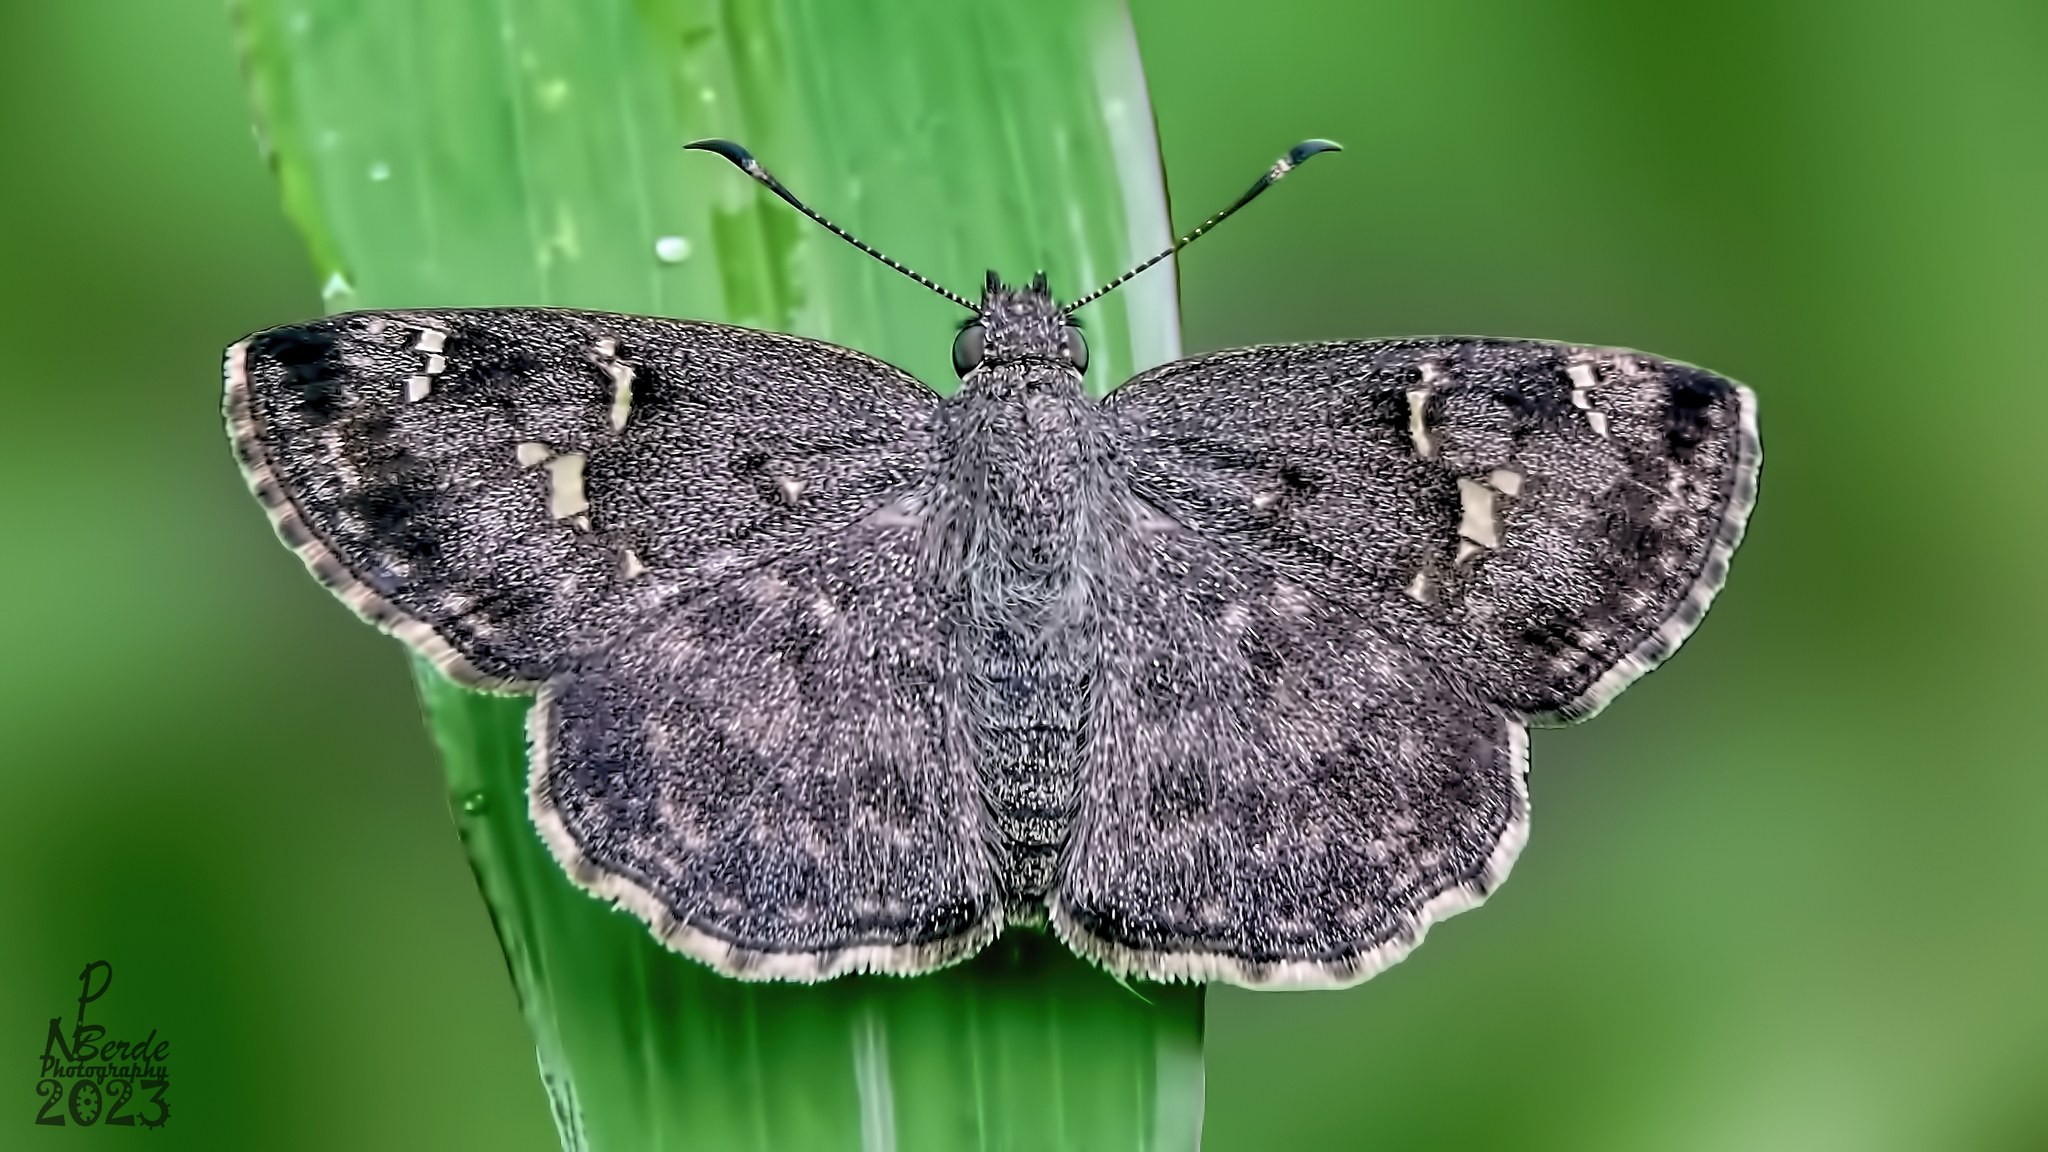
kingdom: Animalia
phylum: Arthropoda
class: Insecta
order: Lepidoptera
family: Hesperiidae
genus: Sarangesa
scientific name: Sarangesa purendra
